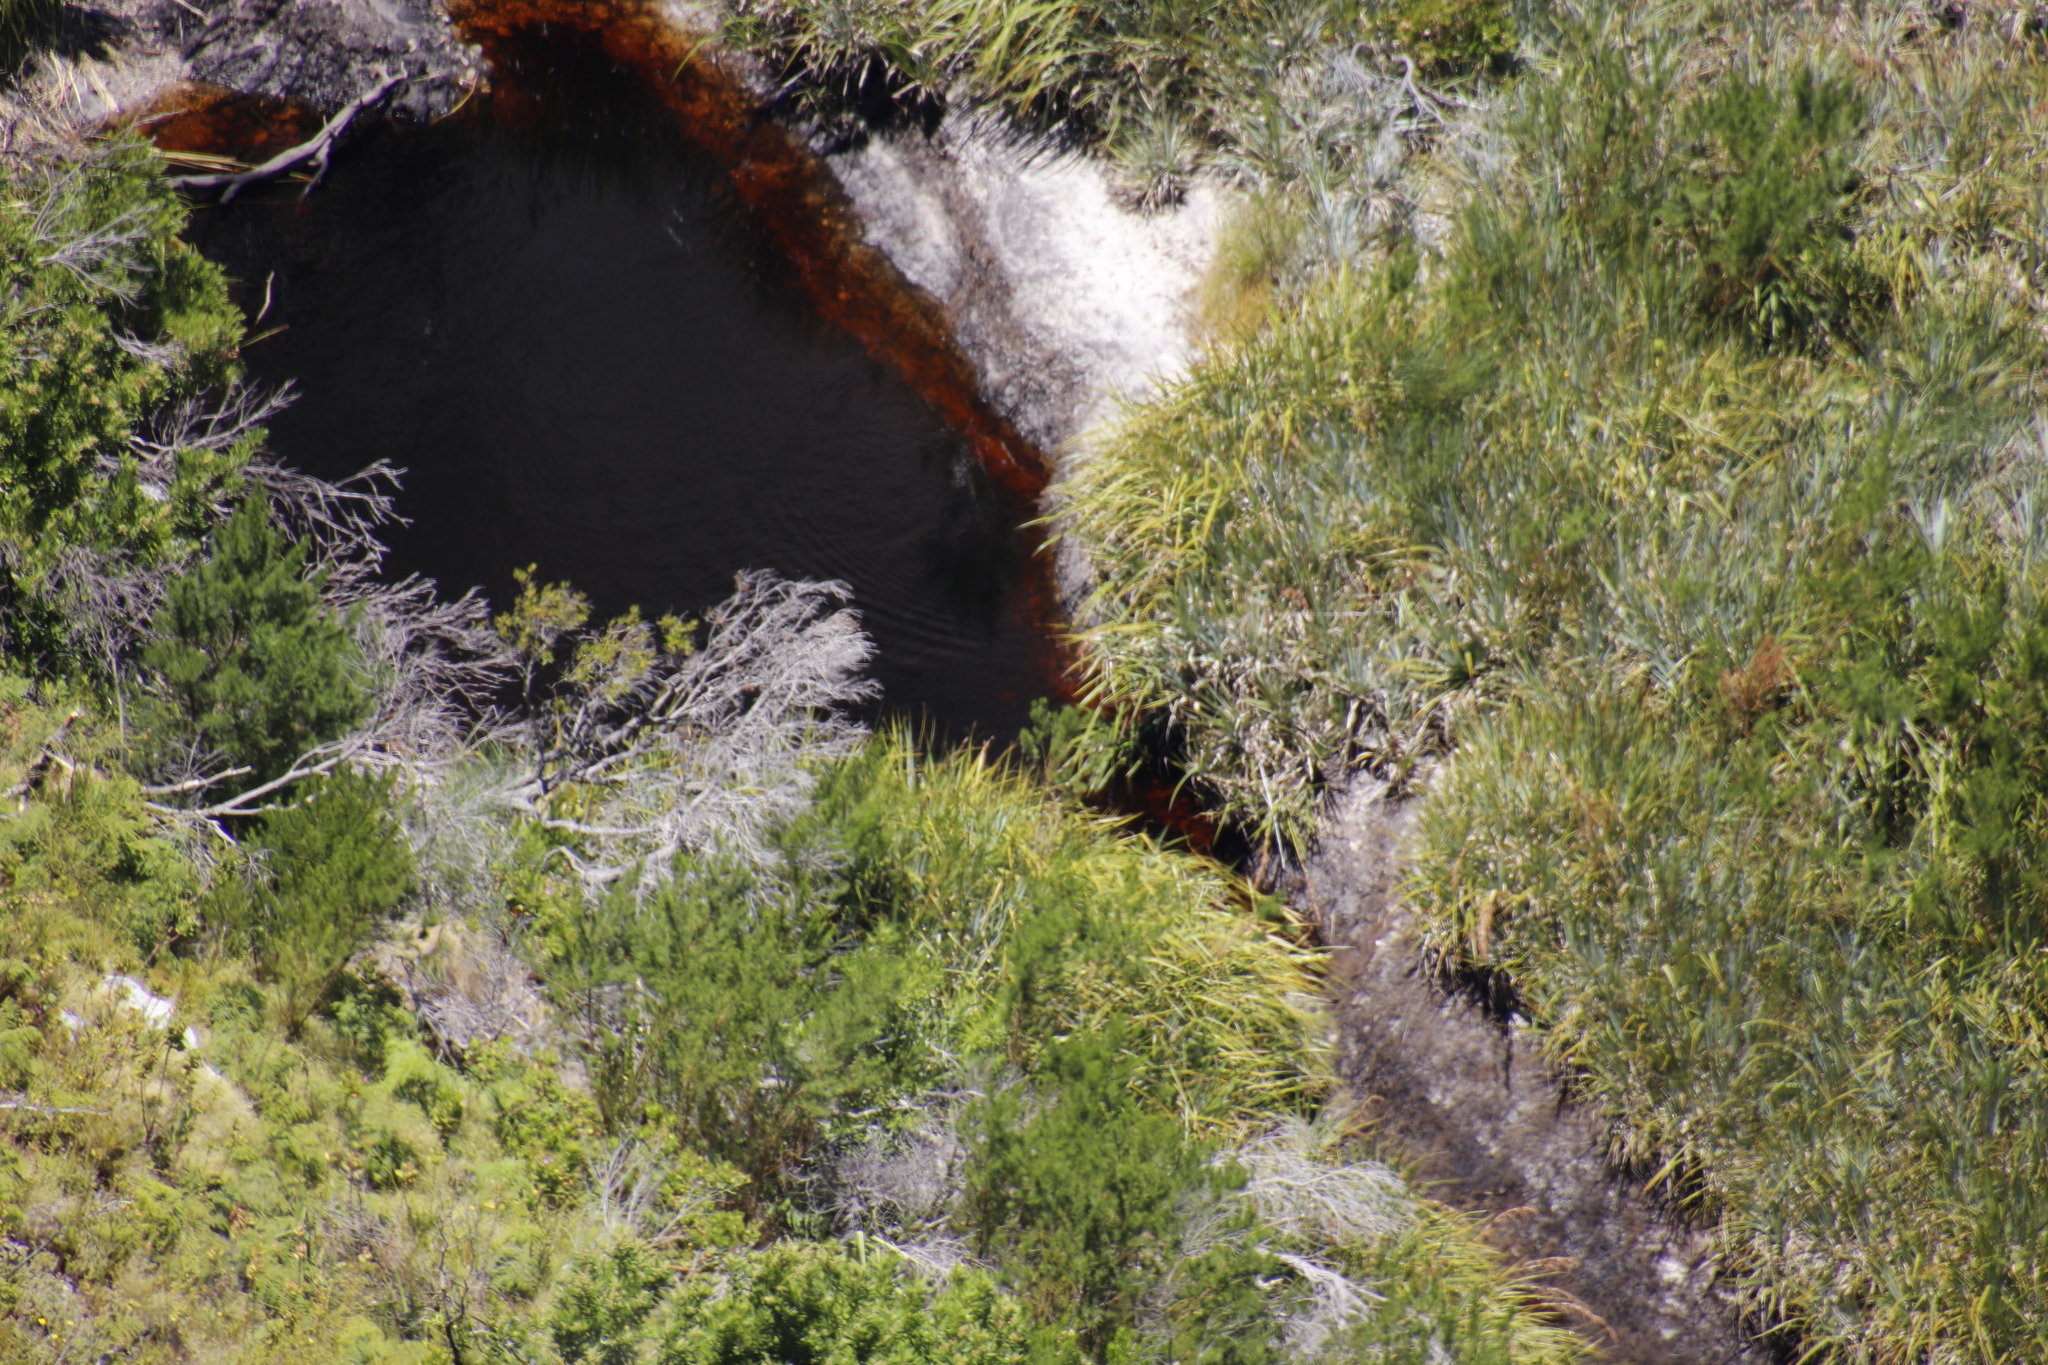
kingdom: Plantae
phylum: Tracheophyta
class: Liliopsida
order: Poales
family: Thurniaceae
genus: Prionium
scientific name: Prionium serratum
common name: Palmiet
